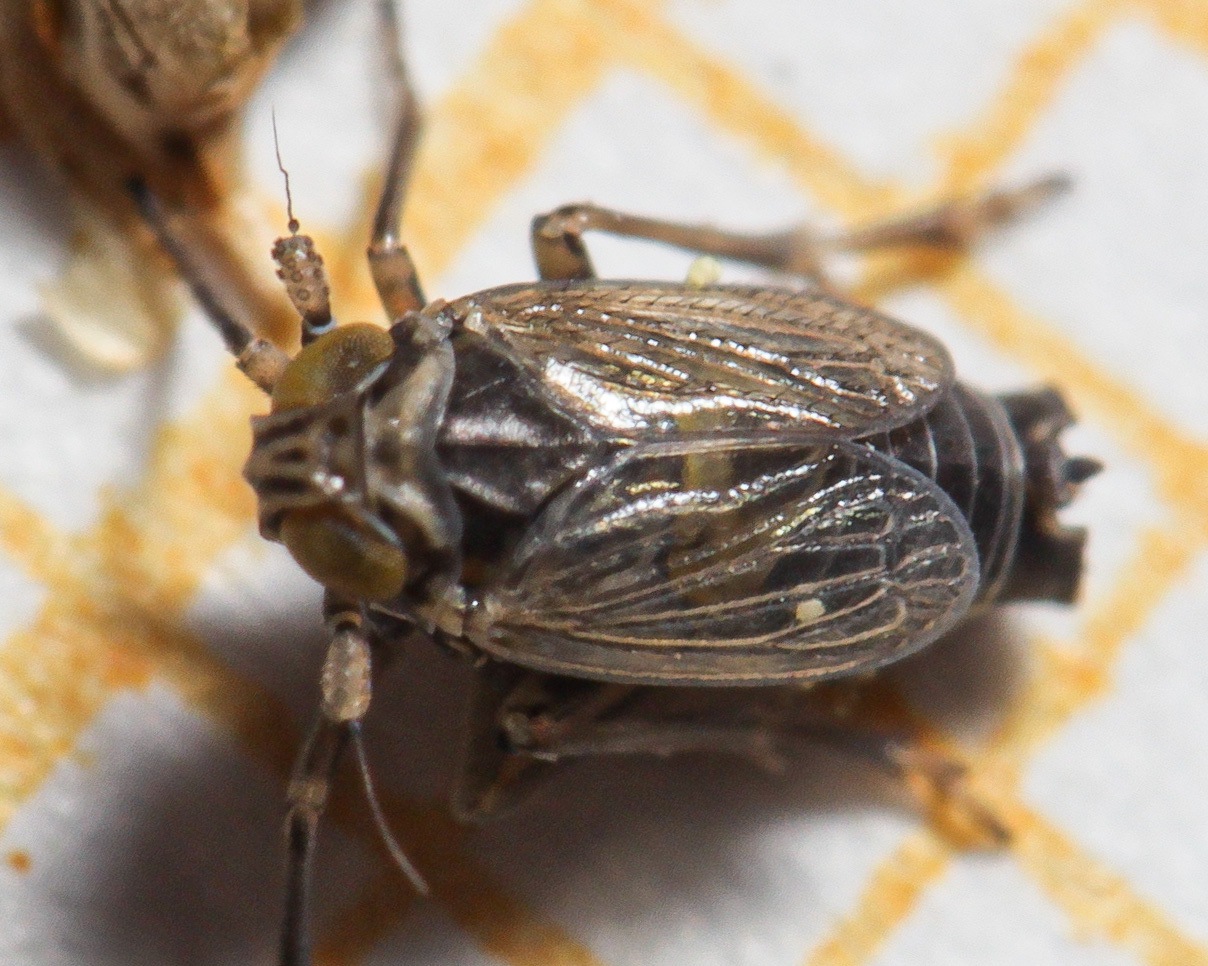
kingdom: Animalia
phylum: Arthropoda
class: Insecta
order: Hemiptera
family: Delphacidae
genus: Javesella
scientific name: Javesella dubia
